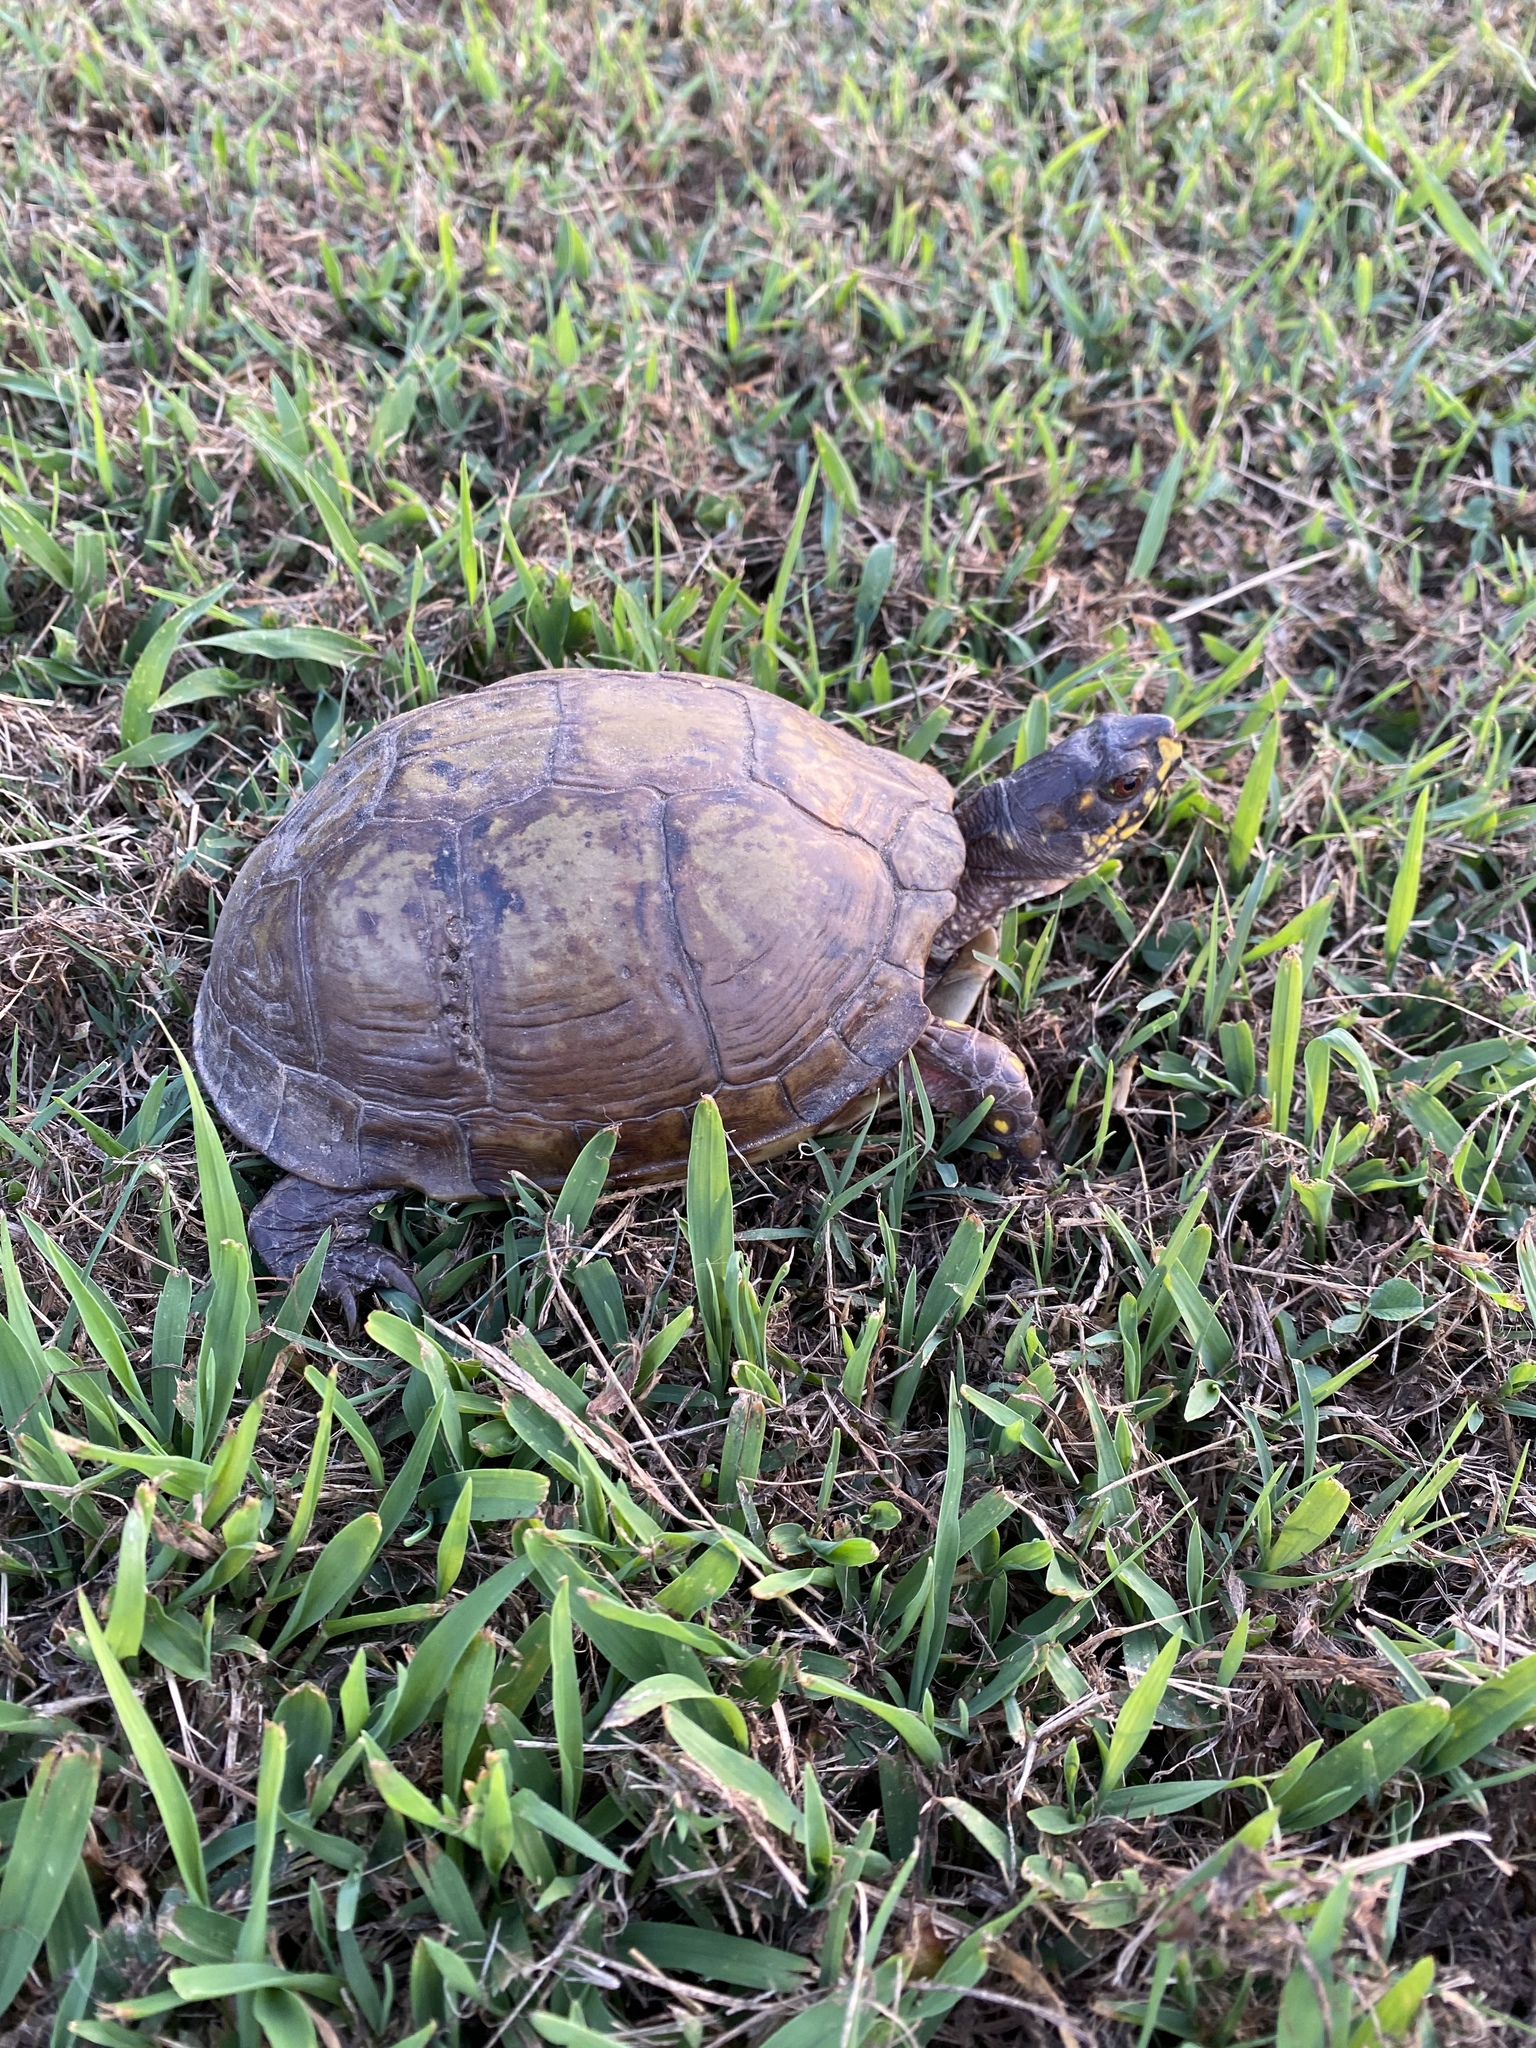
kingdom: Animalia
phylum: Chordata
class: Testudines
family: Emydidae
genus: Terrapene
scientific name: Terrapene carolina
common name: Common box turtle
